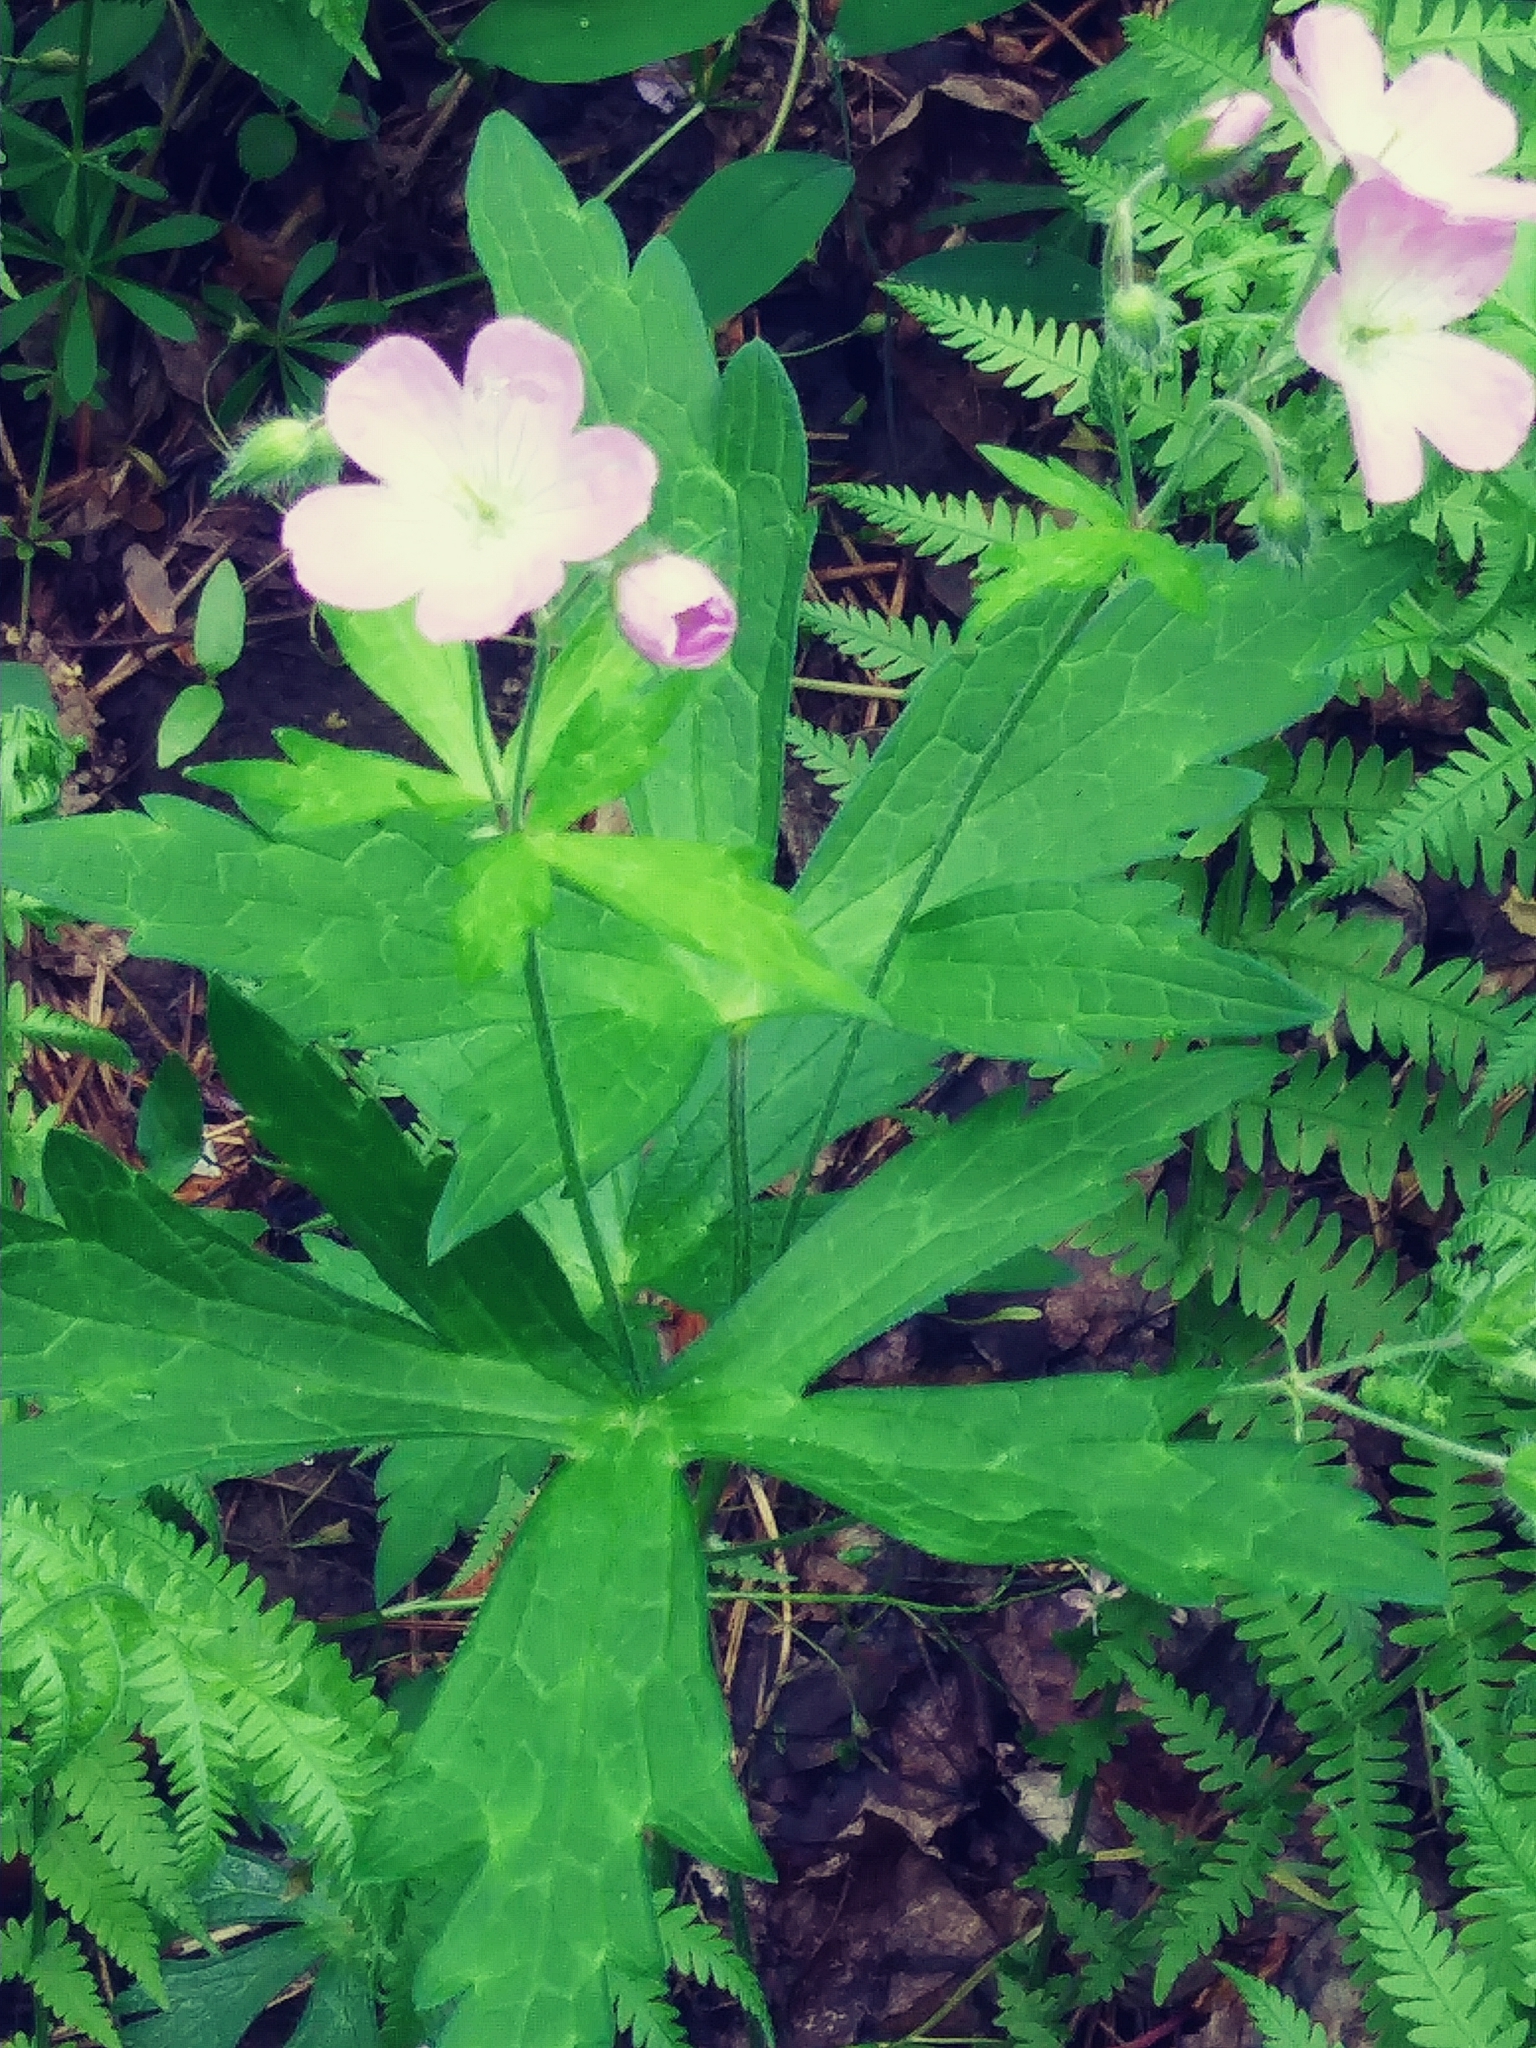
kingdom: Plantae
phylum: Tracheophyta
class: Magnoliopsida
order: Geraniales
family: Geraniaceae
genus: Geranium
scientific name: Geranium maculatum
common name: Spotted geranium
